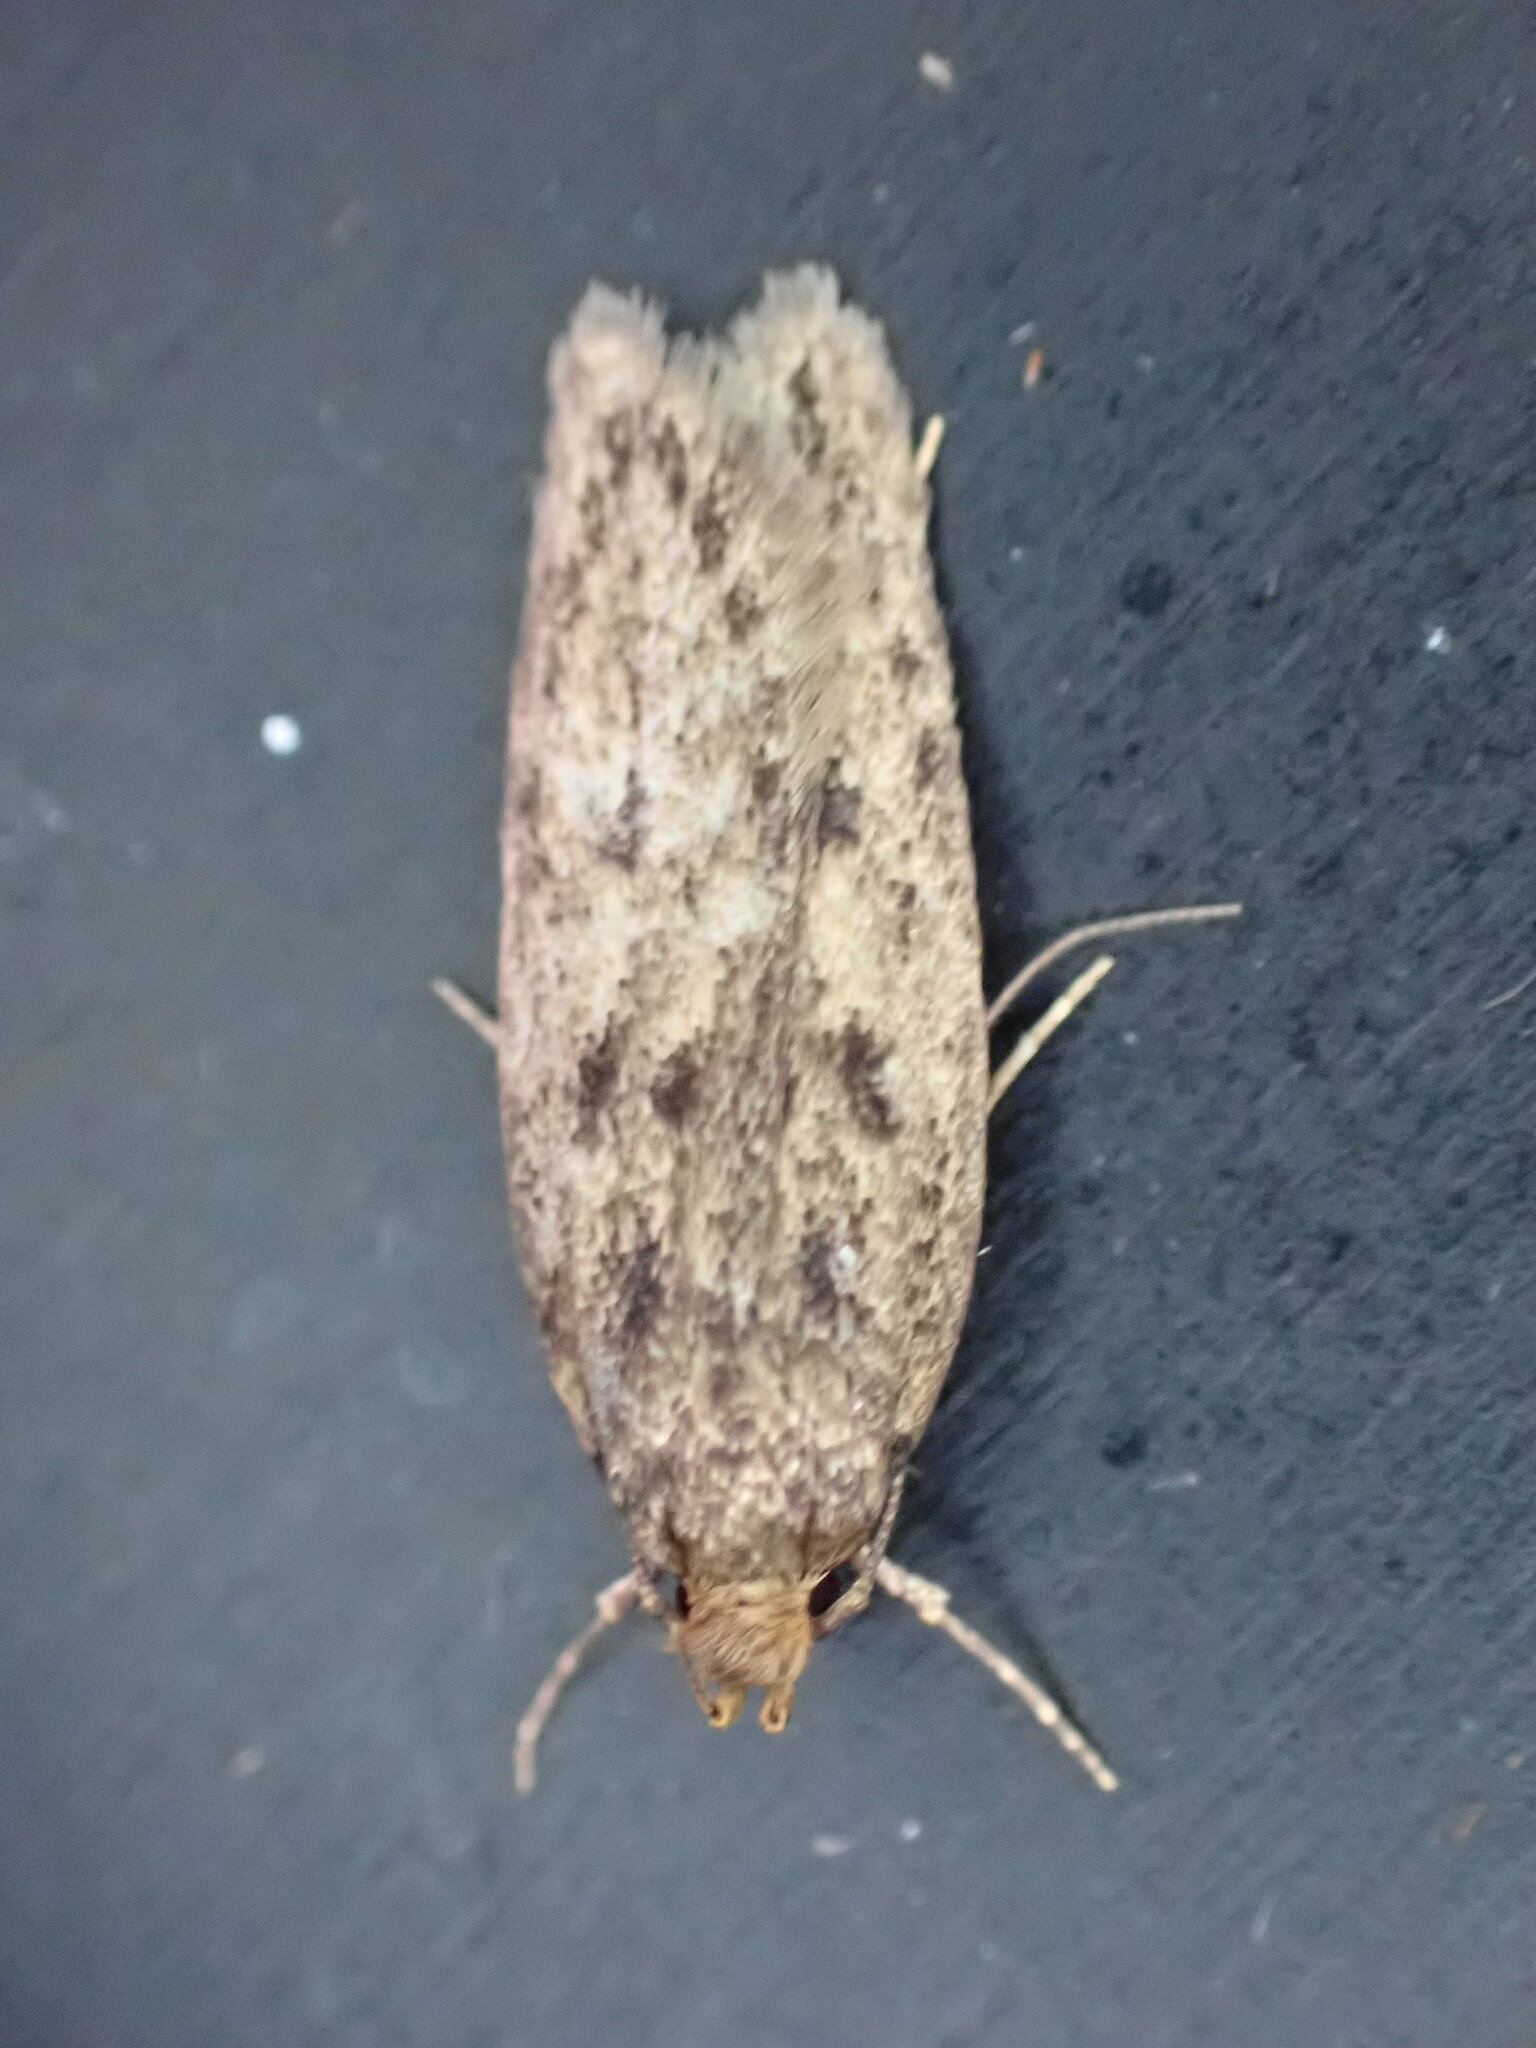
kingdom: Animalia
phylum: Arthropoda
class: Insecta
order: Lepidoptera
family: Oecophoridae
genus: Hofmannophila
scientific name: Hofmannophila pseudospretella
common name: Brown house moth
